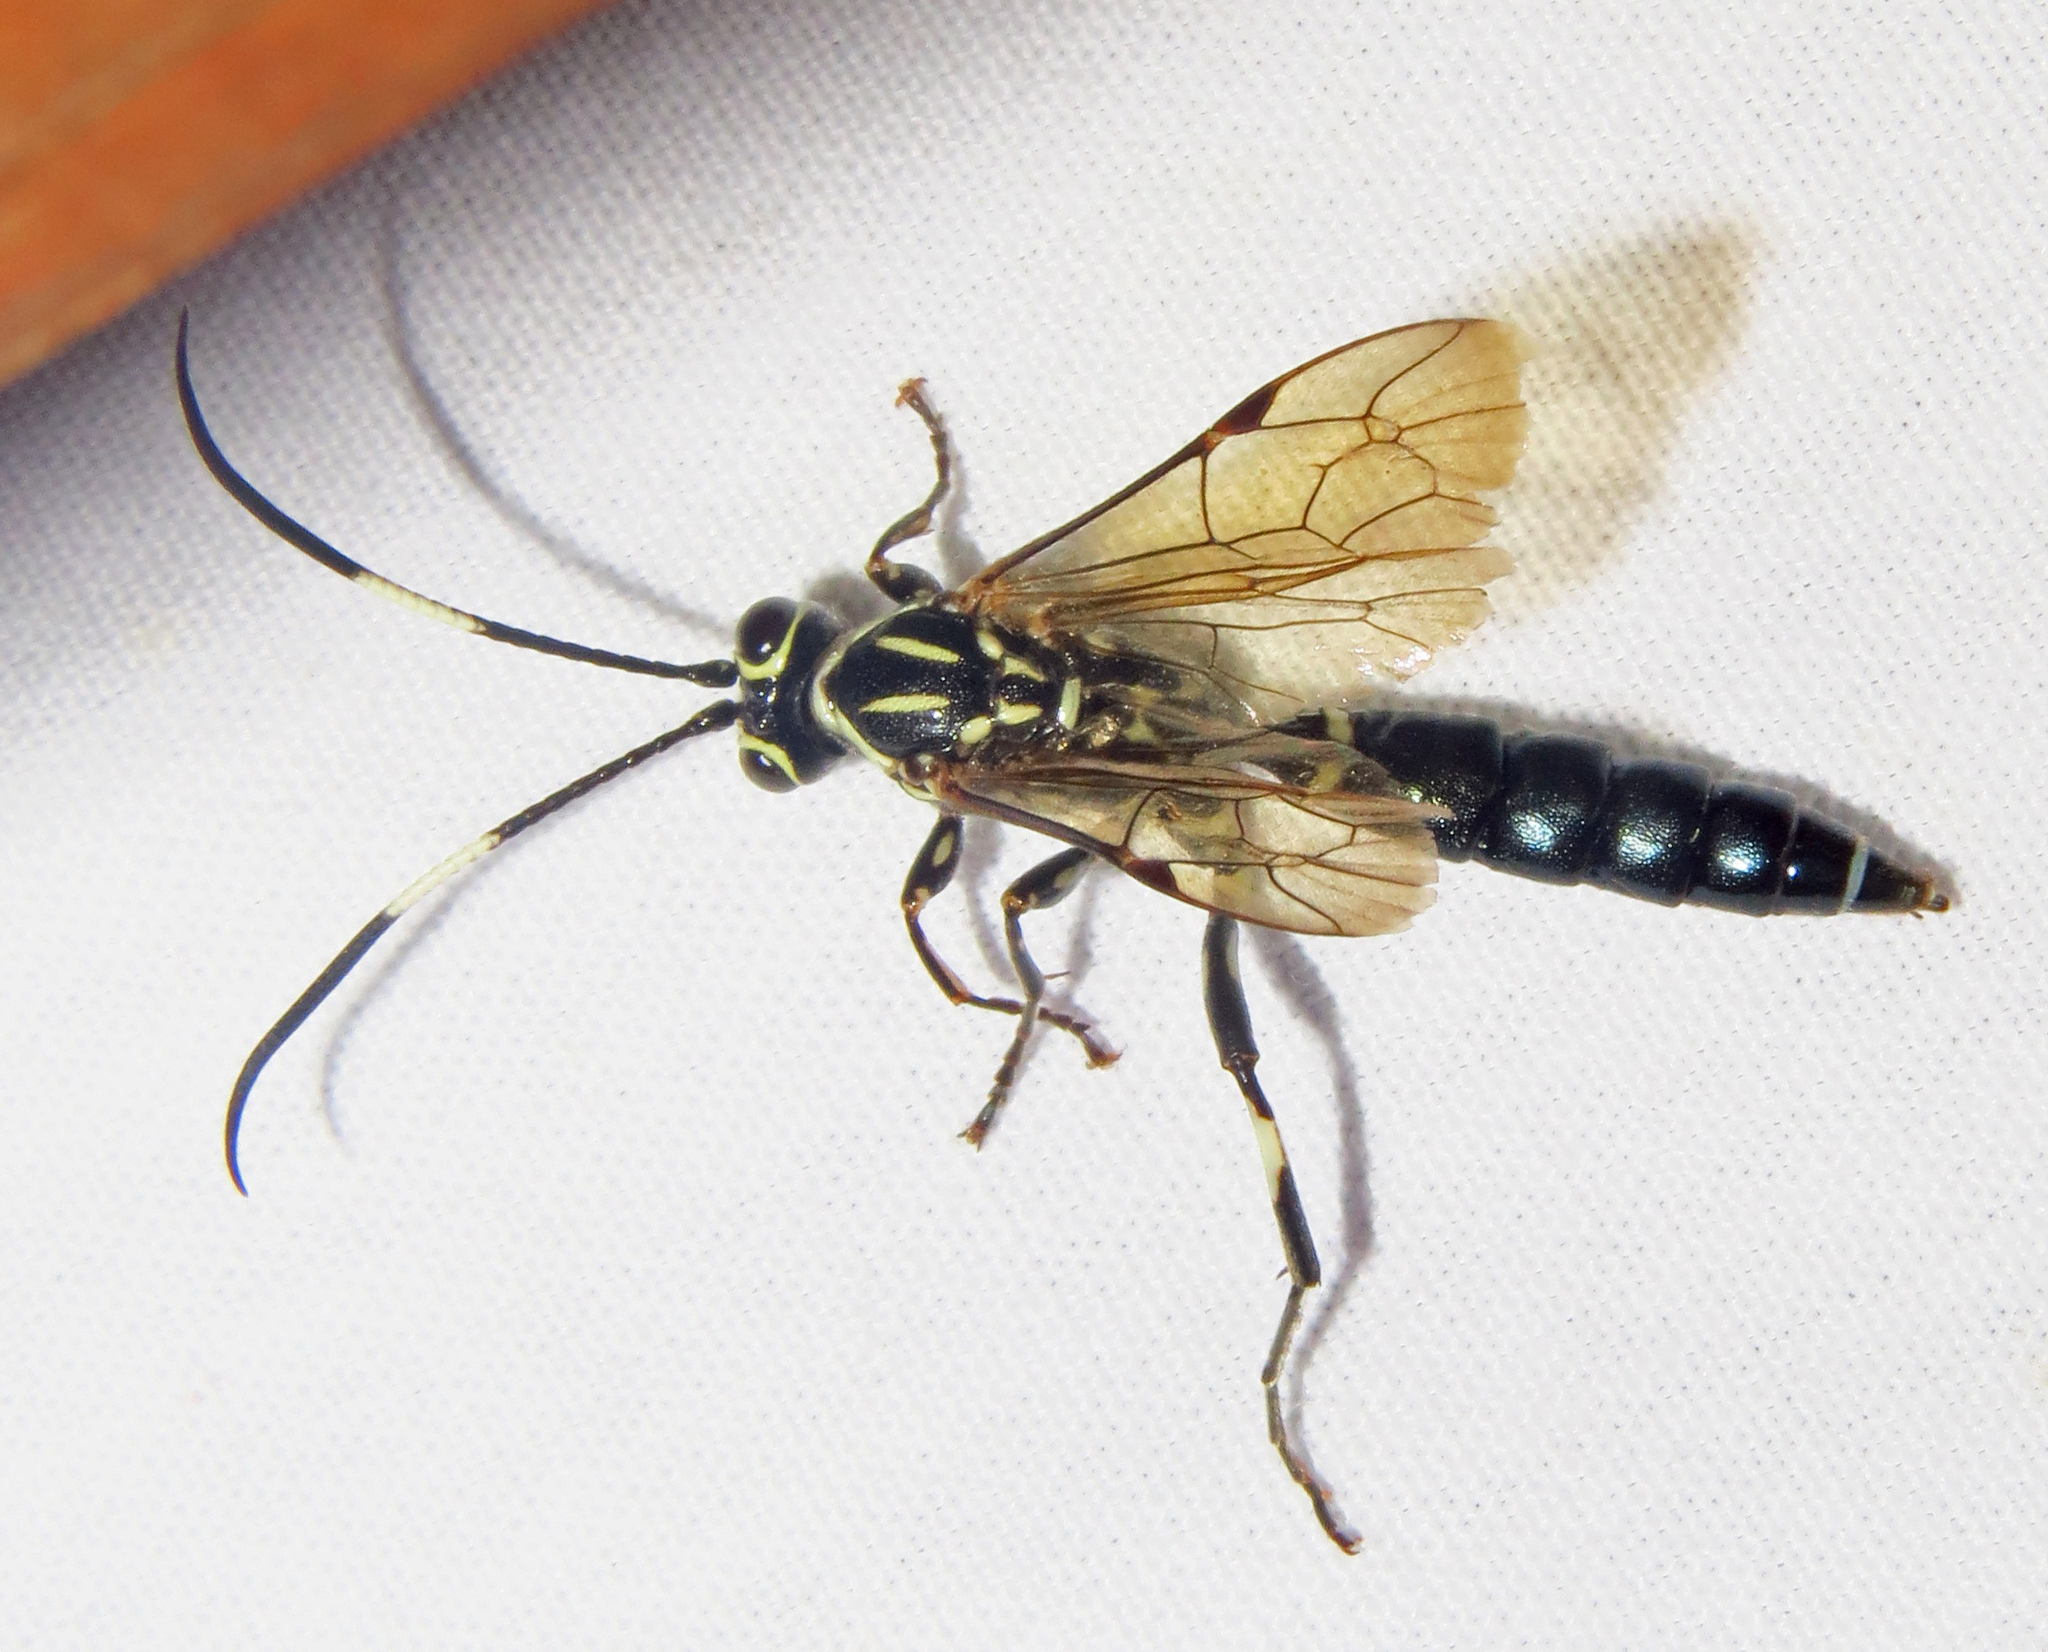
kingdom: Animalia
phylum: Arthropoda
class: Insecta
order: Hymenoptera
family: Ichneumonidae
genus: Coelichneumon
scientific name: Coelichneumon
